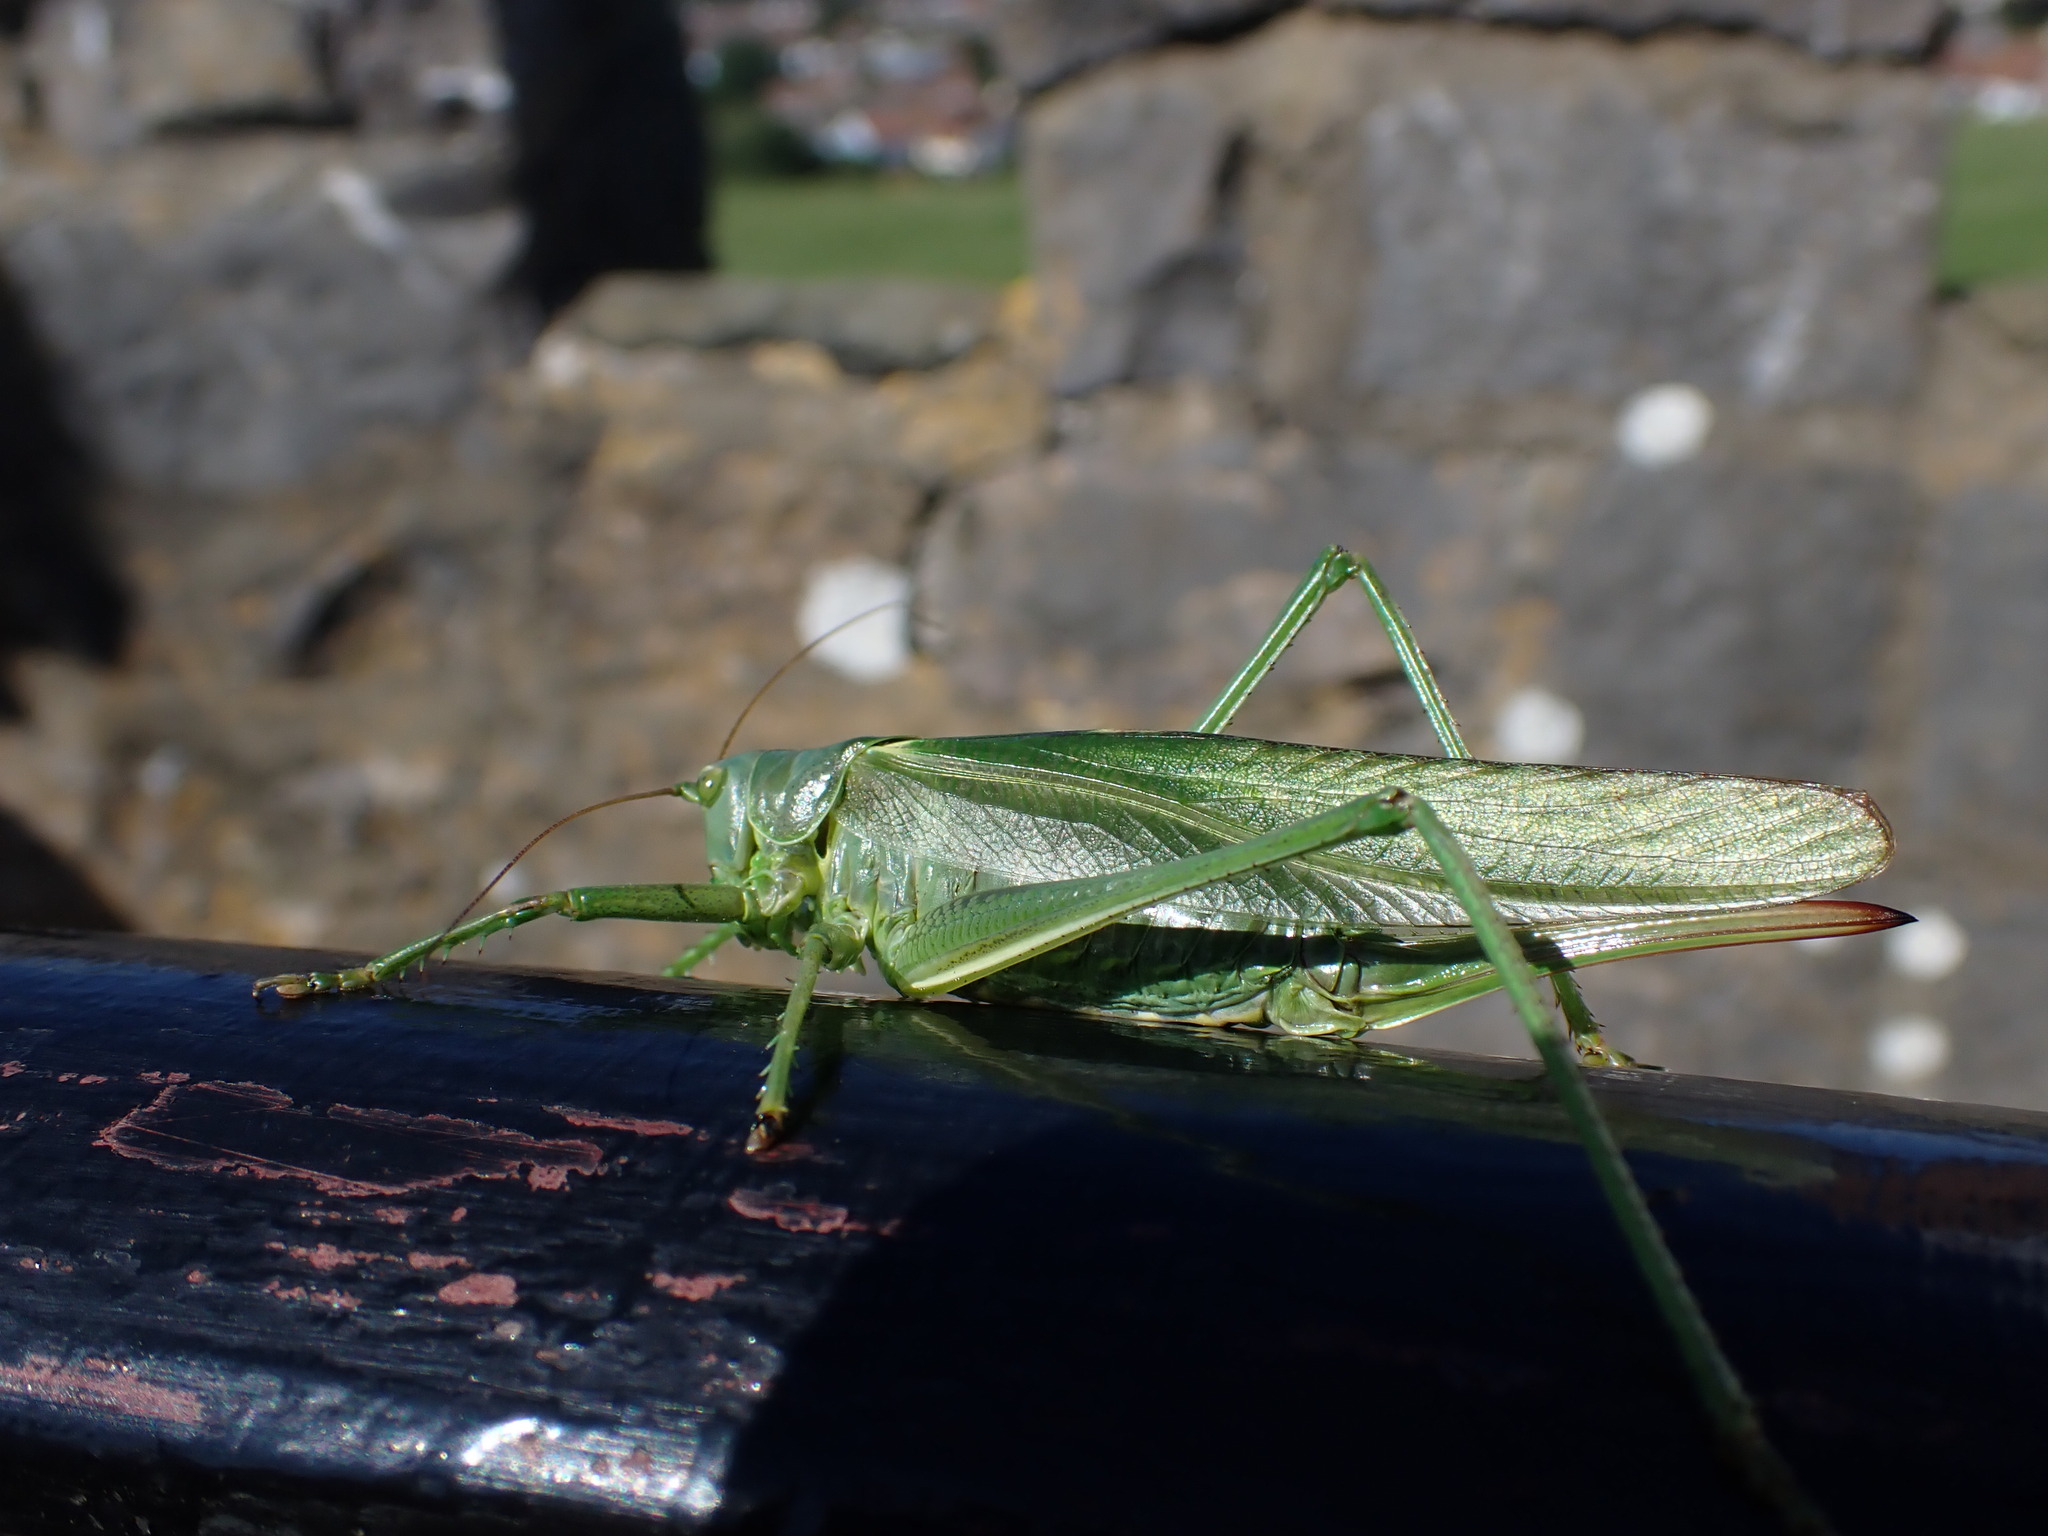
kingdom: Animalia
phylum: Arthropoda
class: Insecta
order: Orthoptera
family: Tettigoniidae
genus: Tettigonia
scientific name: Tettigonia viridissima
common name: Great green bush-cricket
